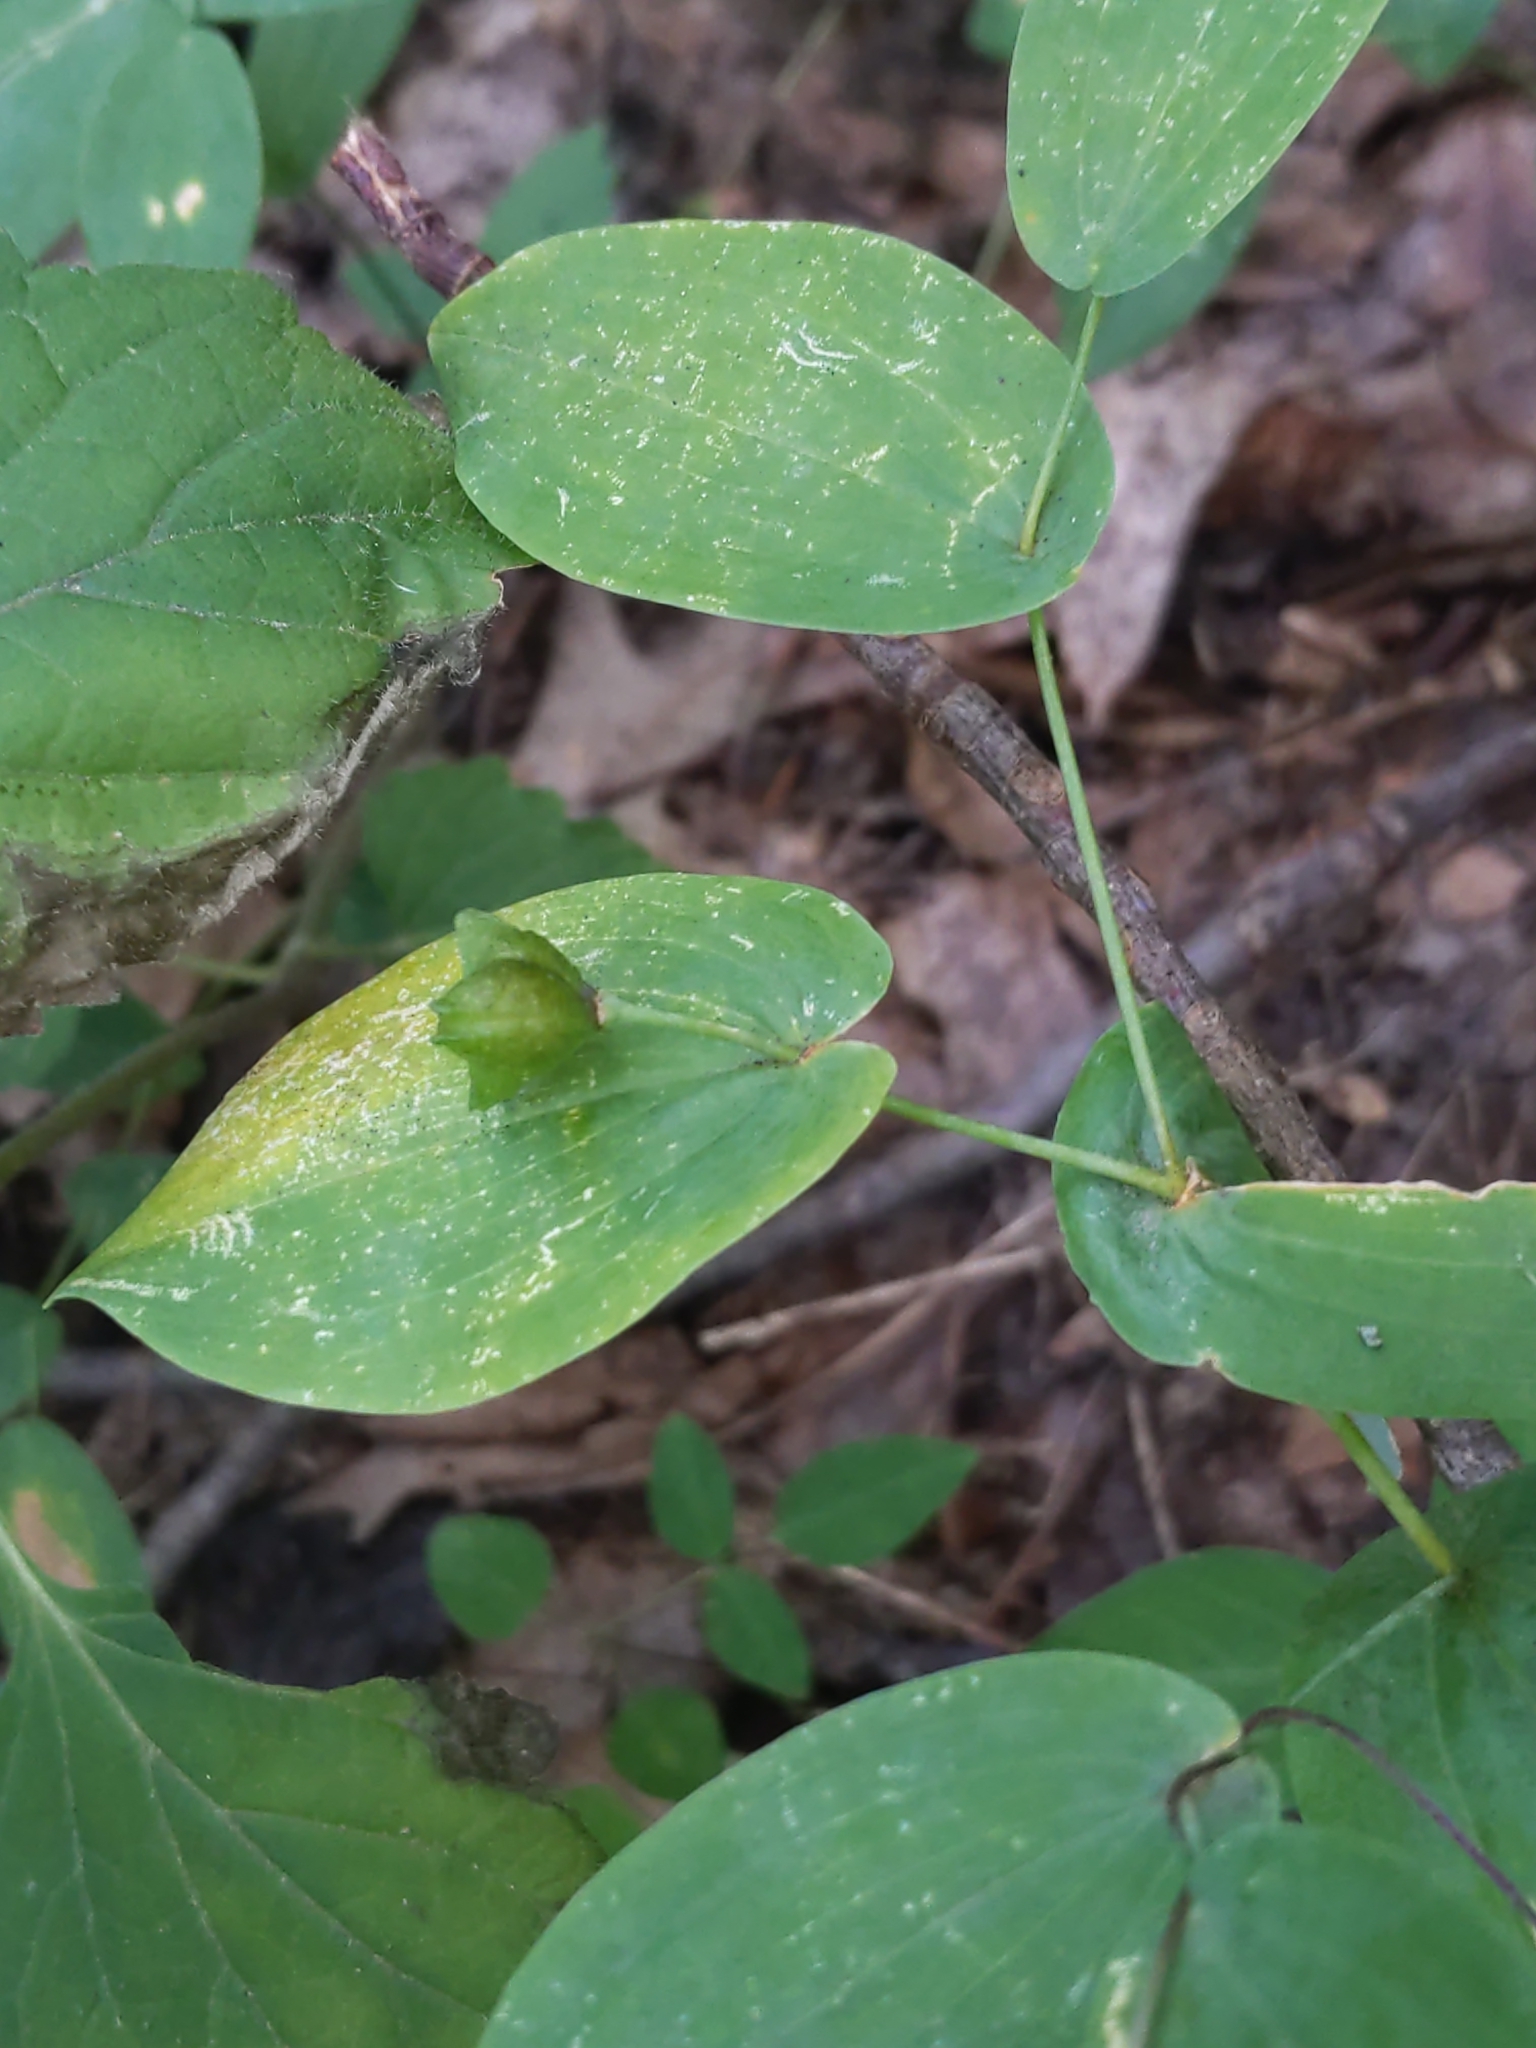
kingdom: Plantae
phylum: Tracheophyta
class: Liliopsida
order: Liliales
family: Colchicaceae
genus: Uvularia
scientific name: Uvularia perfoliata
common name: Perfoliate bellwort
